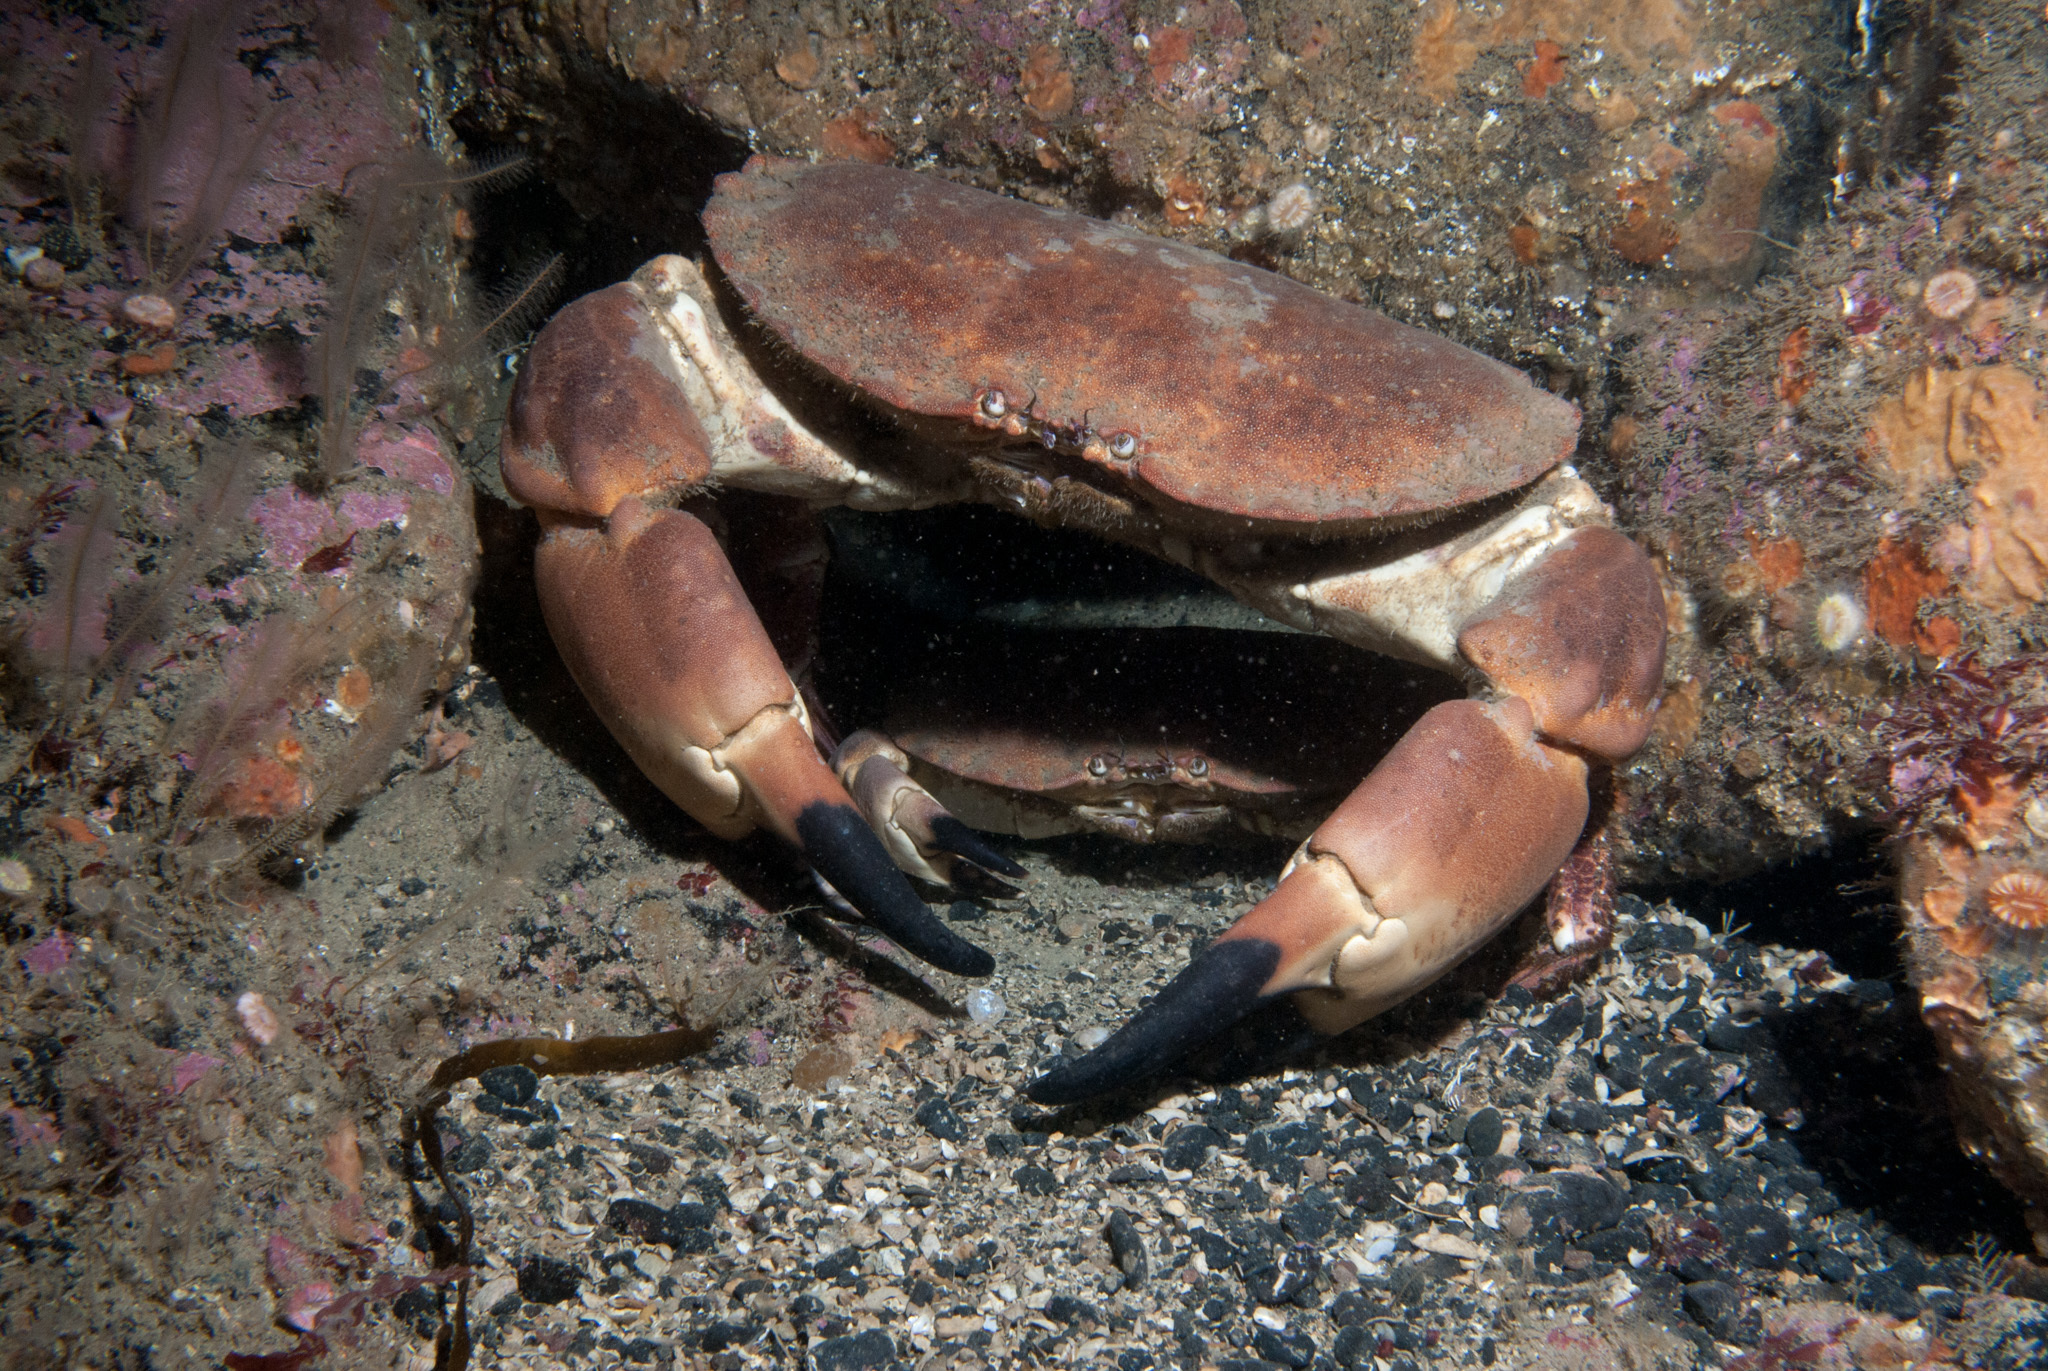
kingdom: Animalia
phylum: Arthropoda
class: Malacostraca
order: Decapoda
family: Cancridae
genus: Cancer
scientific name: Cancer pagurus
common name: Edible crab
